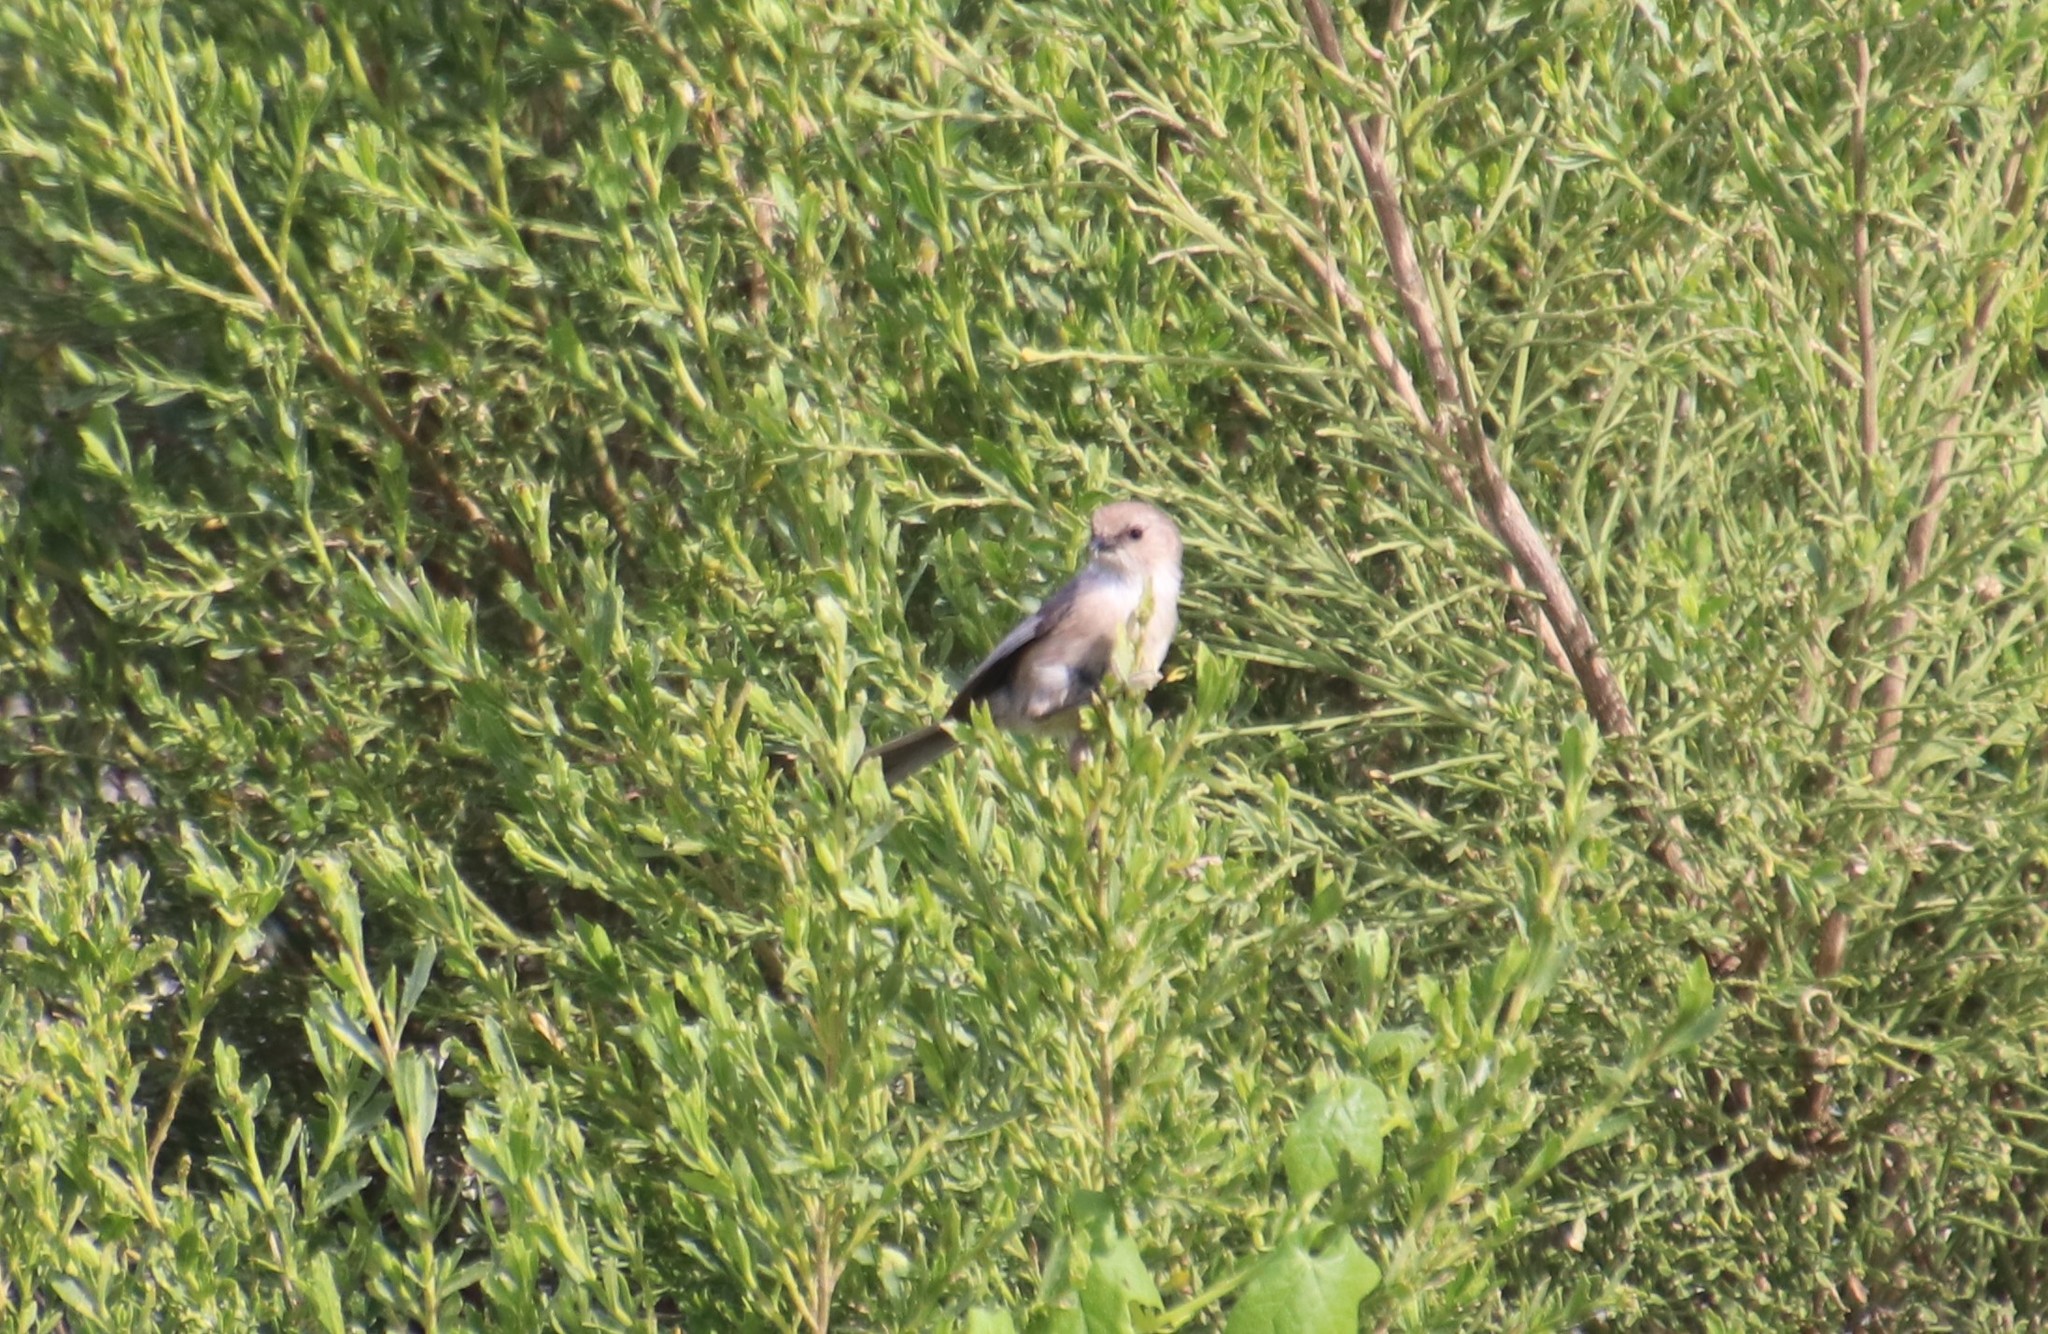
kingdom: Animalia
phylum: Chordata
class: Aves
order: Passeriformes
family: Aegithalidae
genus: Psaltriparus
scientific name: Psaltriparus minimus
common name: American bushtit
